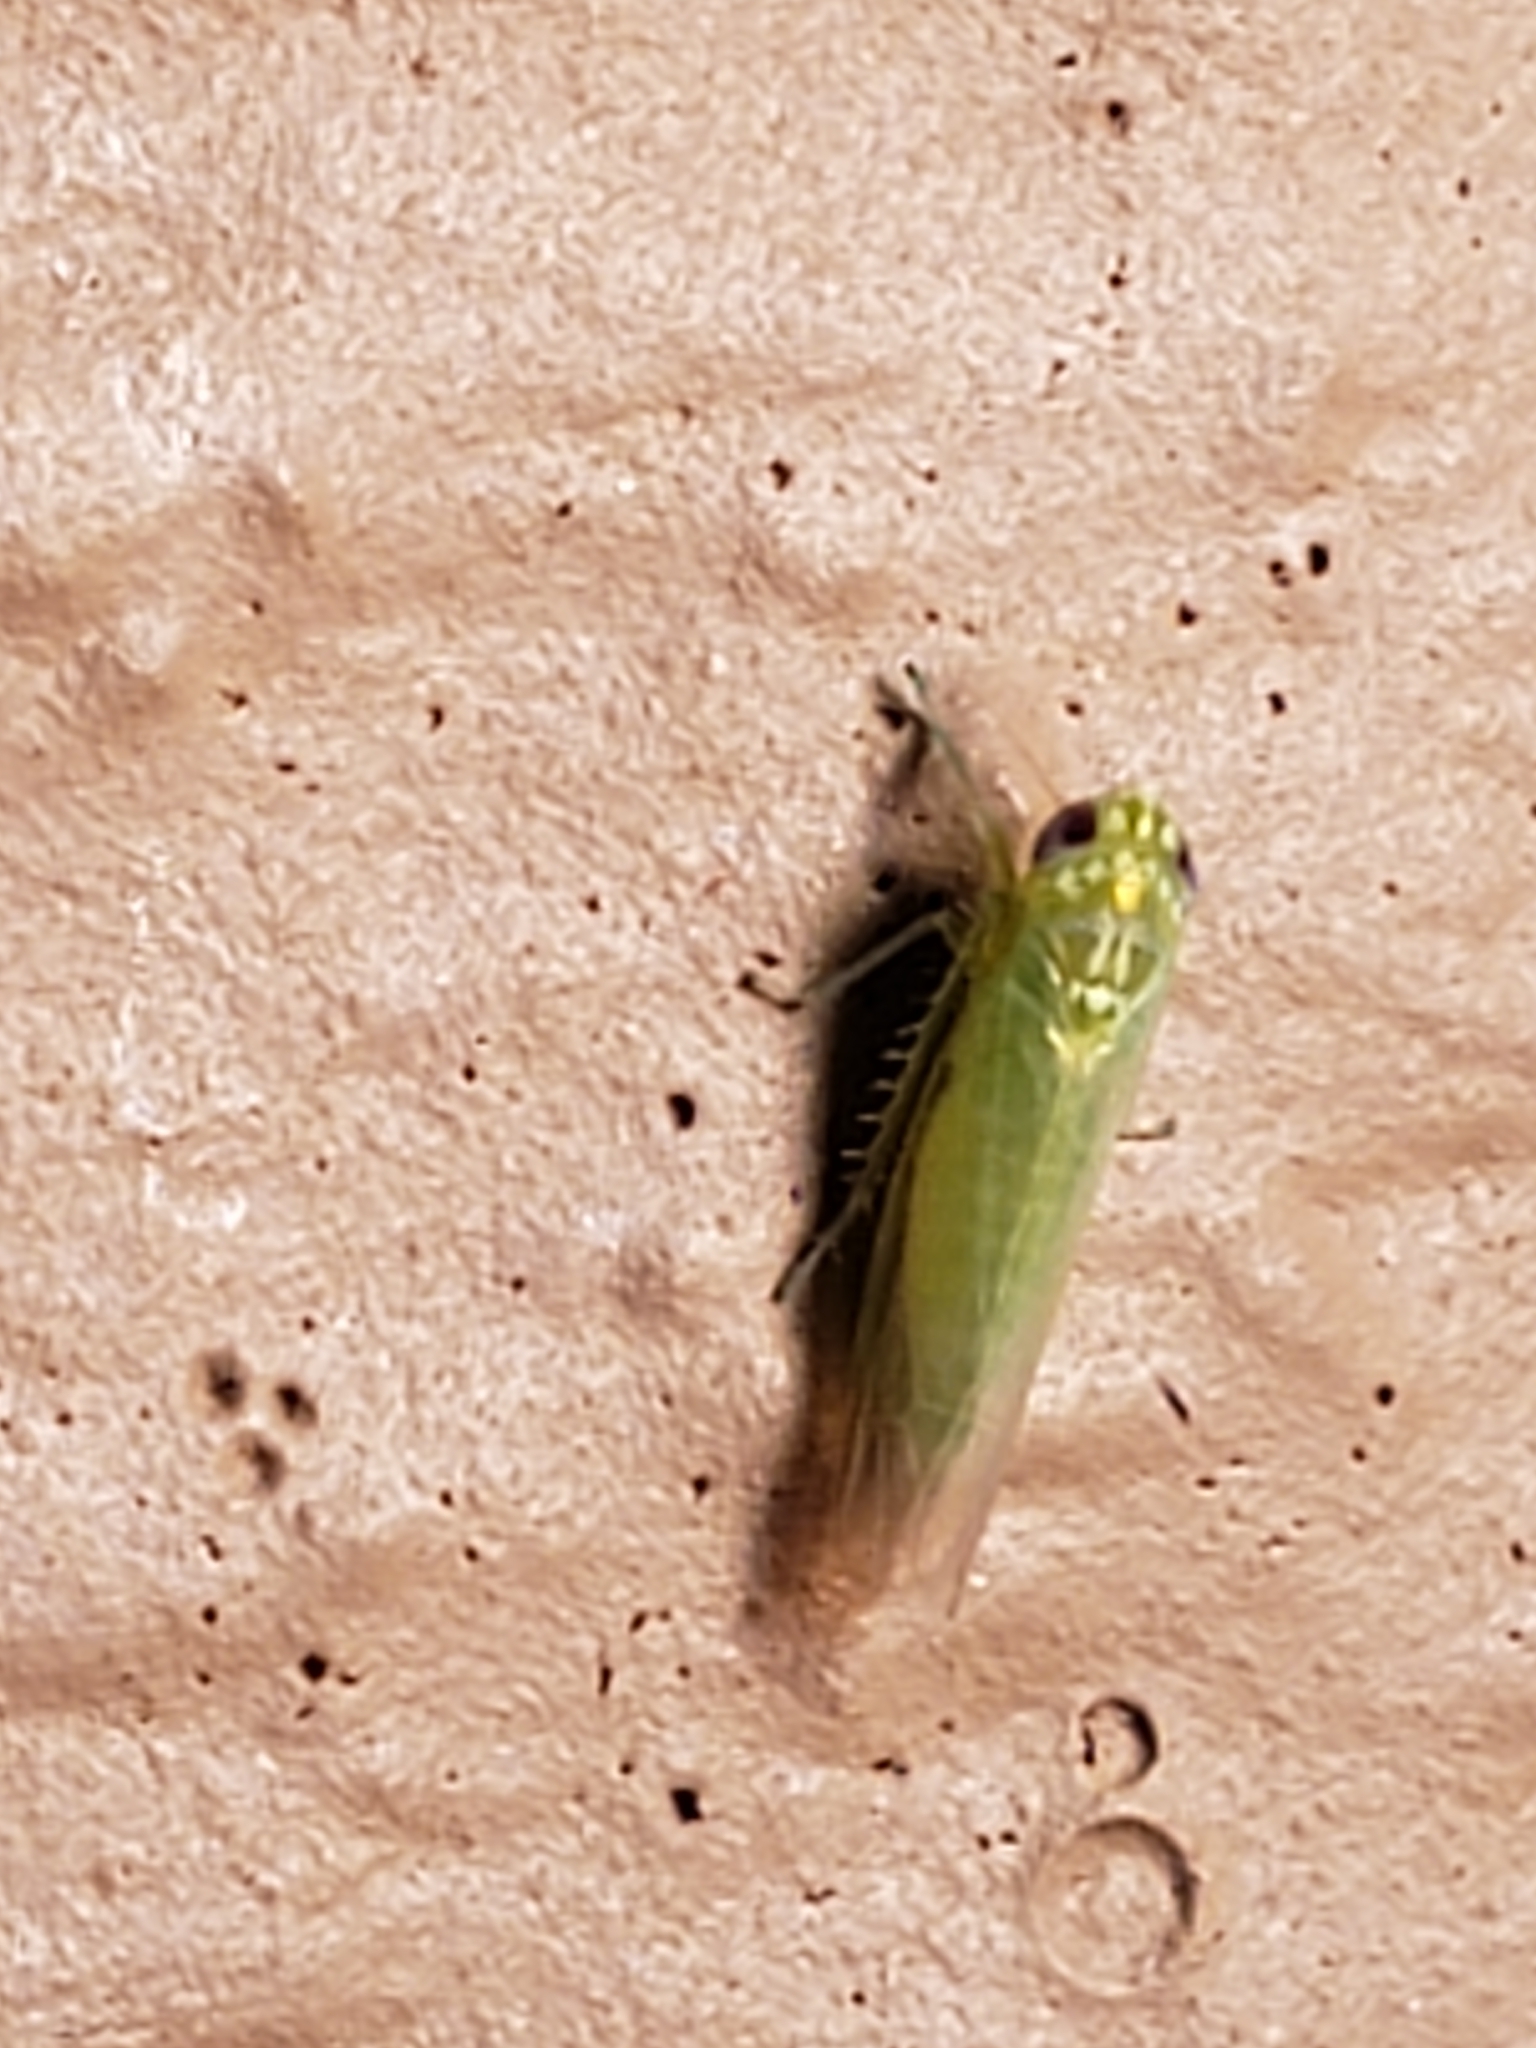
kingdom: Animalia
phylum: Arthropoda
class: Insecta
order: Hemiptera
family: Cicadellidae
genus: Empoasca
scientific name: Empoasca fabae
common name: Potato leafhopper
